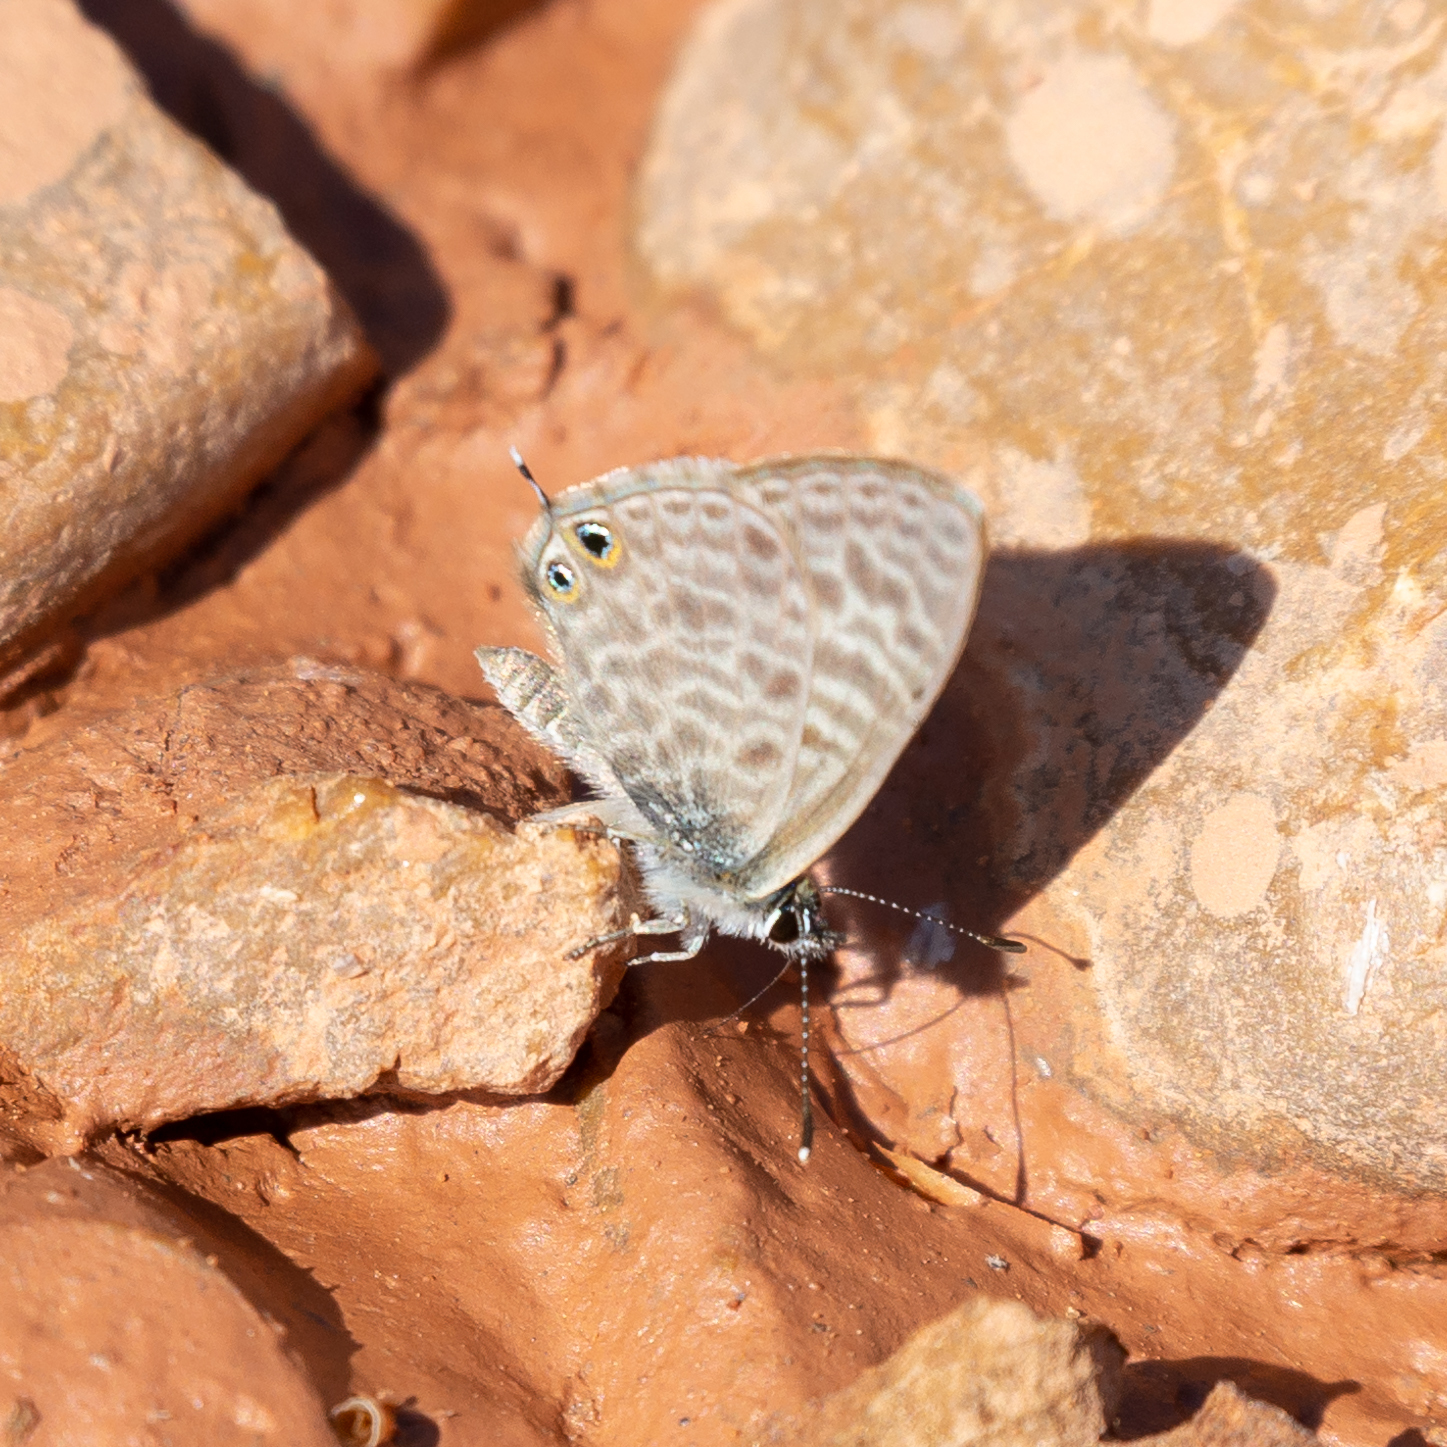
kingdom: Animalia
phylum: Arthropoda
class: Insecta
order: Lepidoptera
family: Lycaenidae
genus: Leptotes
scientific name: Leptotes pirithous
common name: Lang's short-tailed blue
